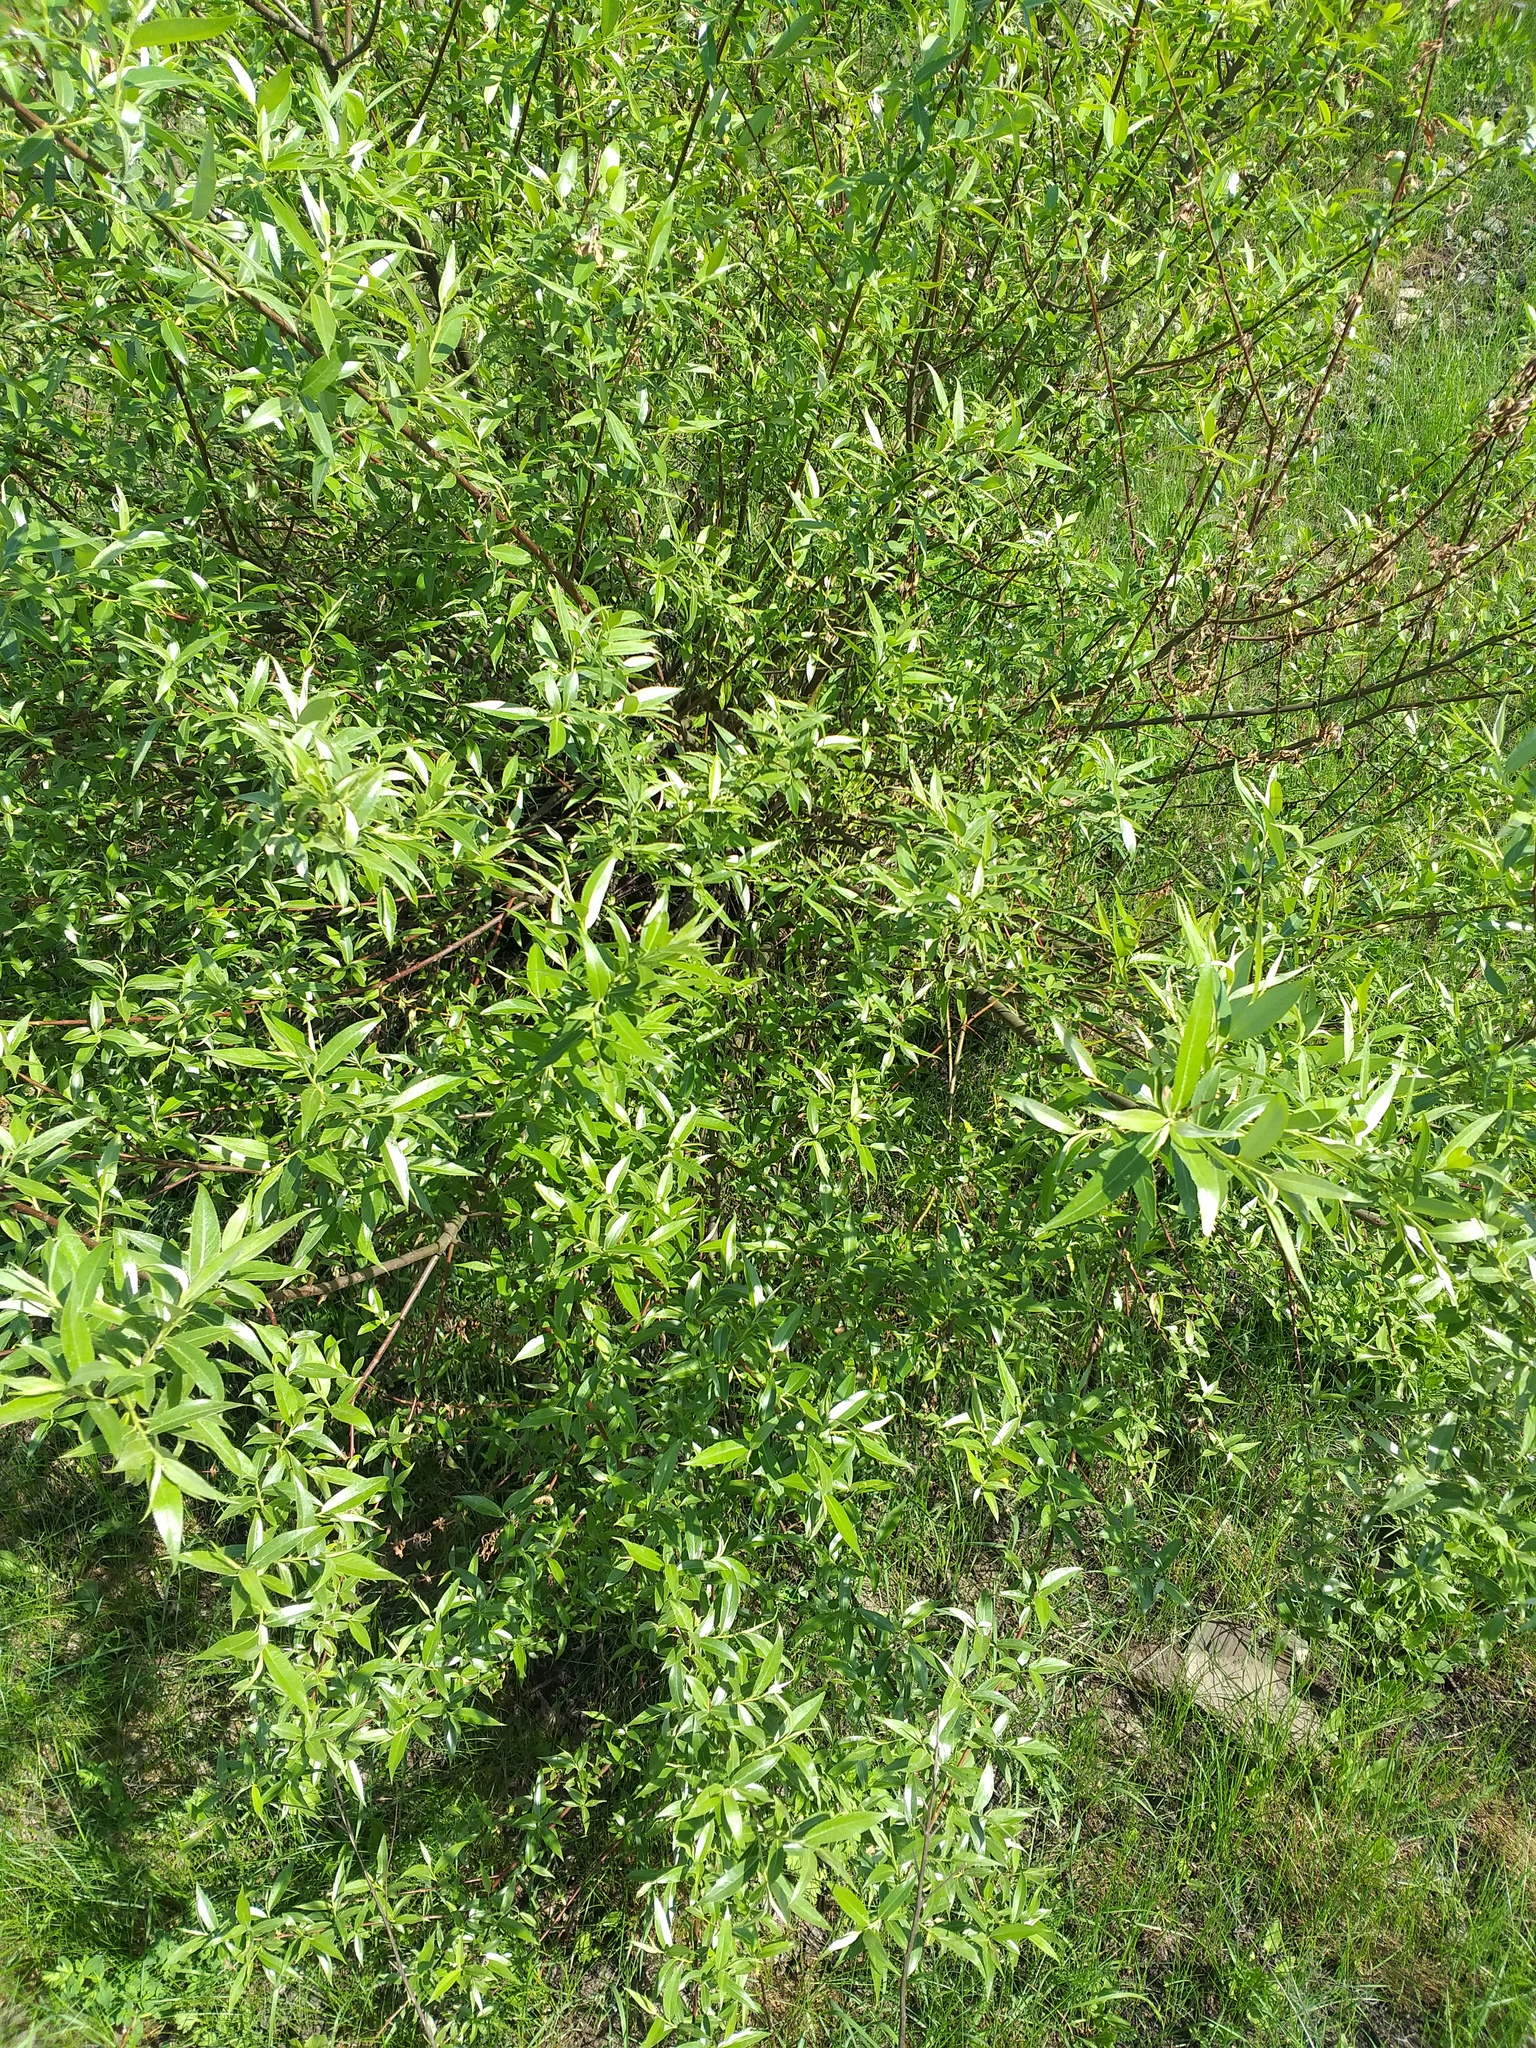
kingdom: Plantae
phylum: Tracheophyta
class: Magnoliopsida
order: Malpighiales
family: Salicaceae
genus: Salix
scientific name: Salix alba
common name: White willow
